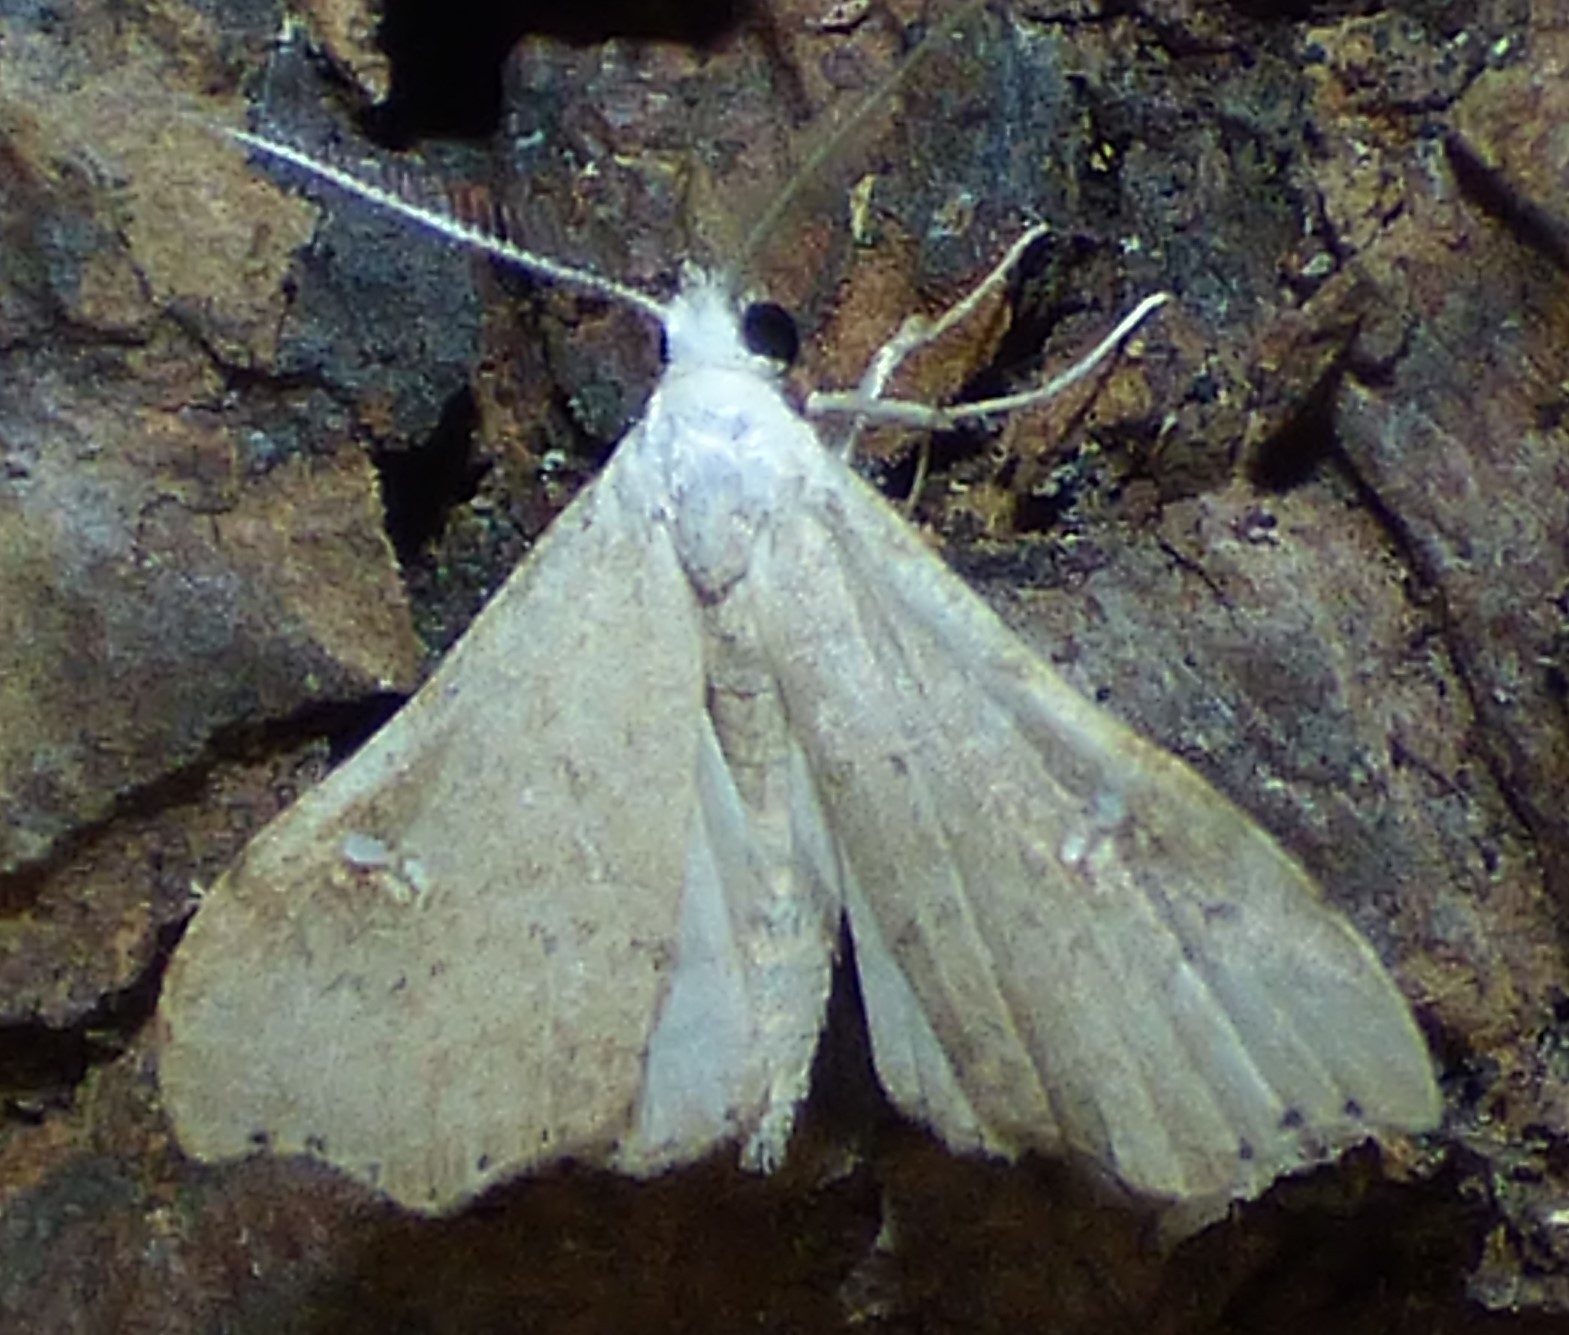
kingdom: Animalia
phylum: Arthropoda
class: Insecta
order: Lepidoptera
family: Erebidae
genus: Redectis
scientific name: Redectis vitrea
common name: White-spotted redectis
